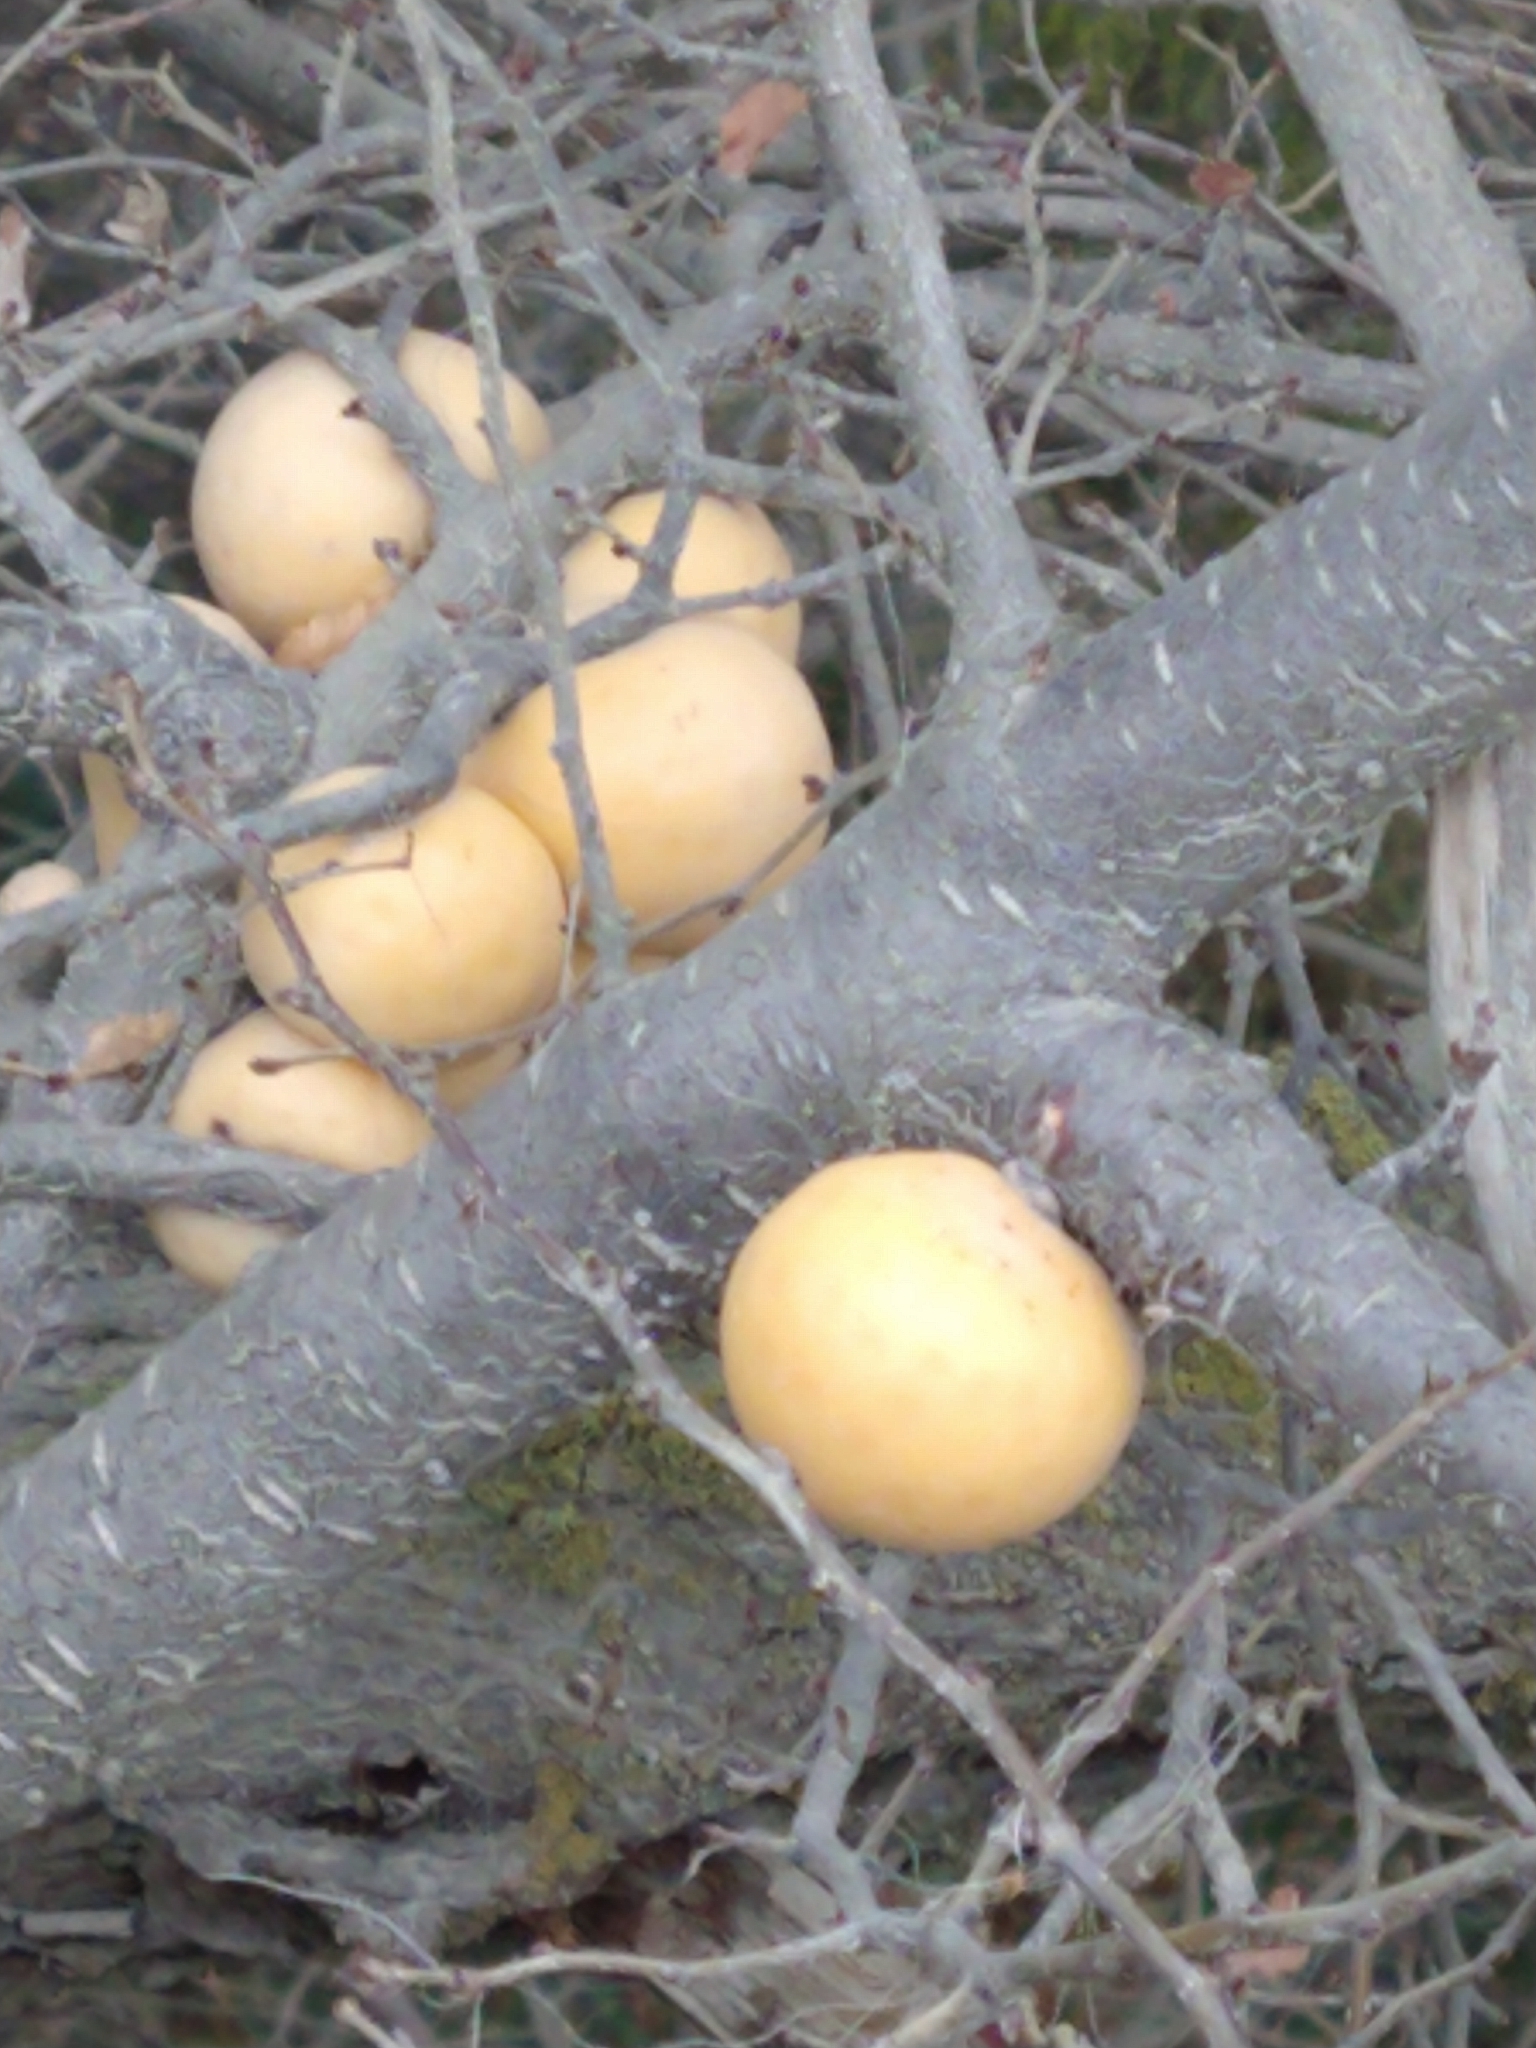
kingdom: Fungi
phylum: Ascomycota
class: Leotiomycetes
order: Cyttariales
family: Cyttariaceae
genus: Cyttaria
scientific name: Cyttaria darwinii
